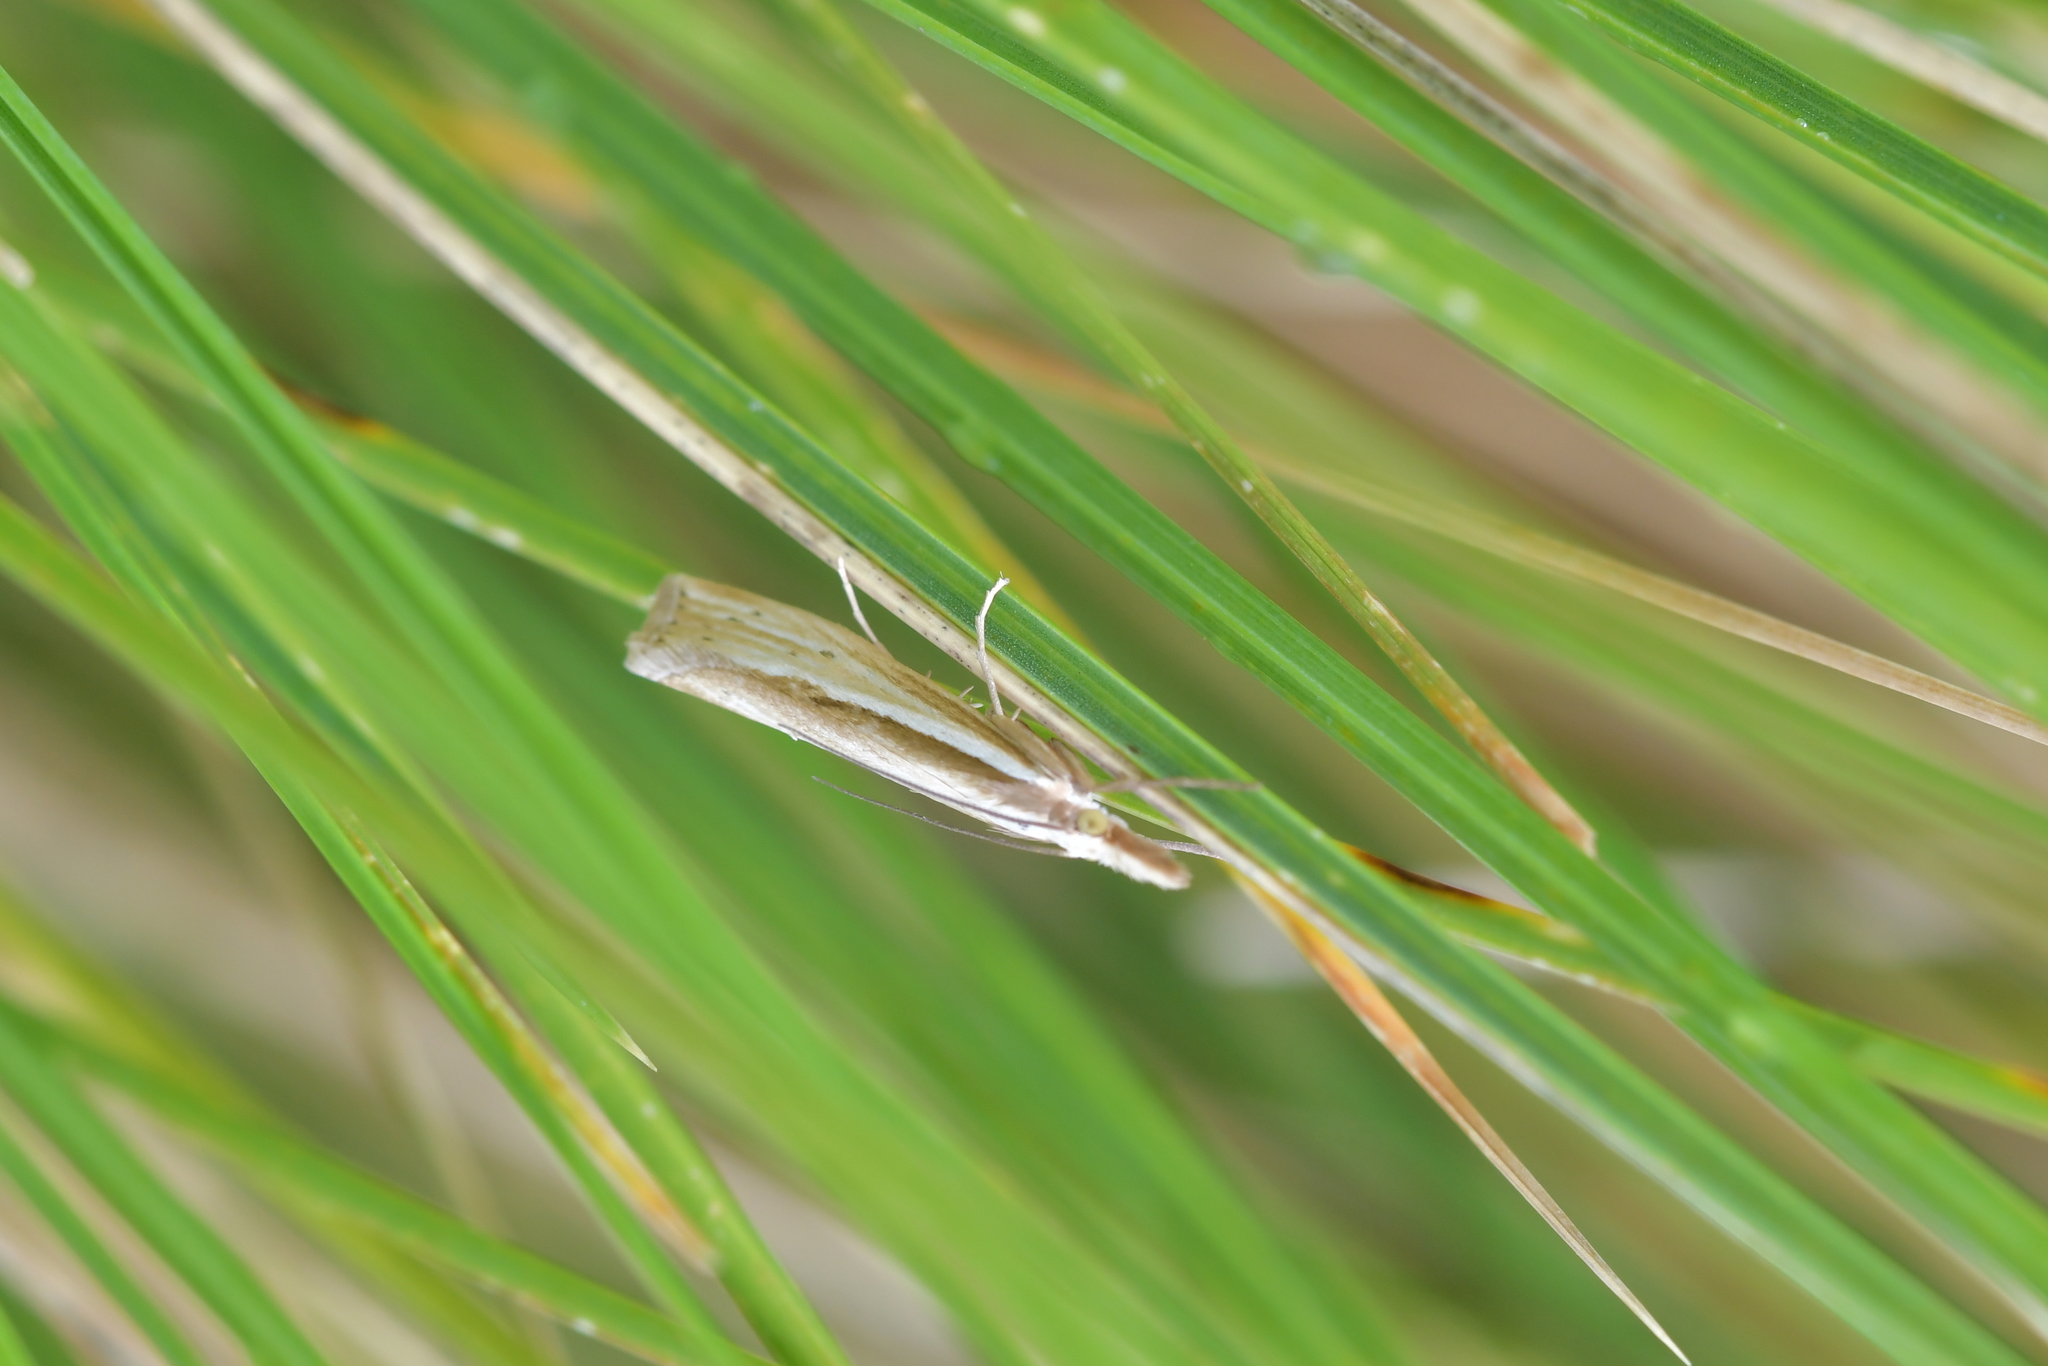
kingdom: Animalia
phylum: Arthropoda
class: Insecta
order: Lepidoptera
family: Crambidae
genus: Orocrambus
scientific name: Orocrambus ramosellus
